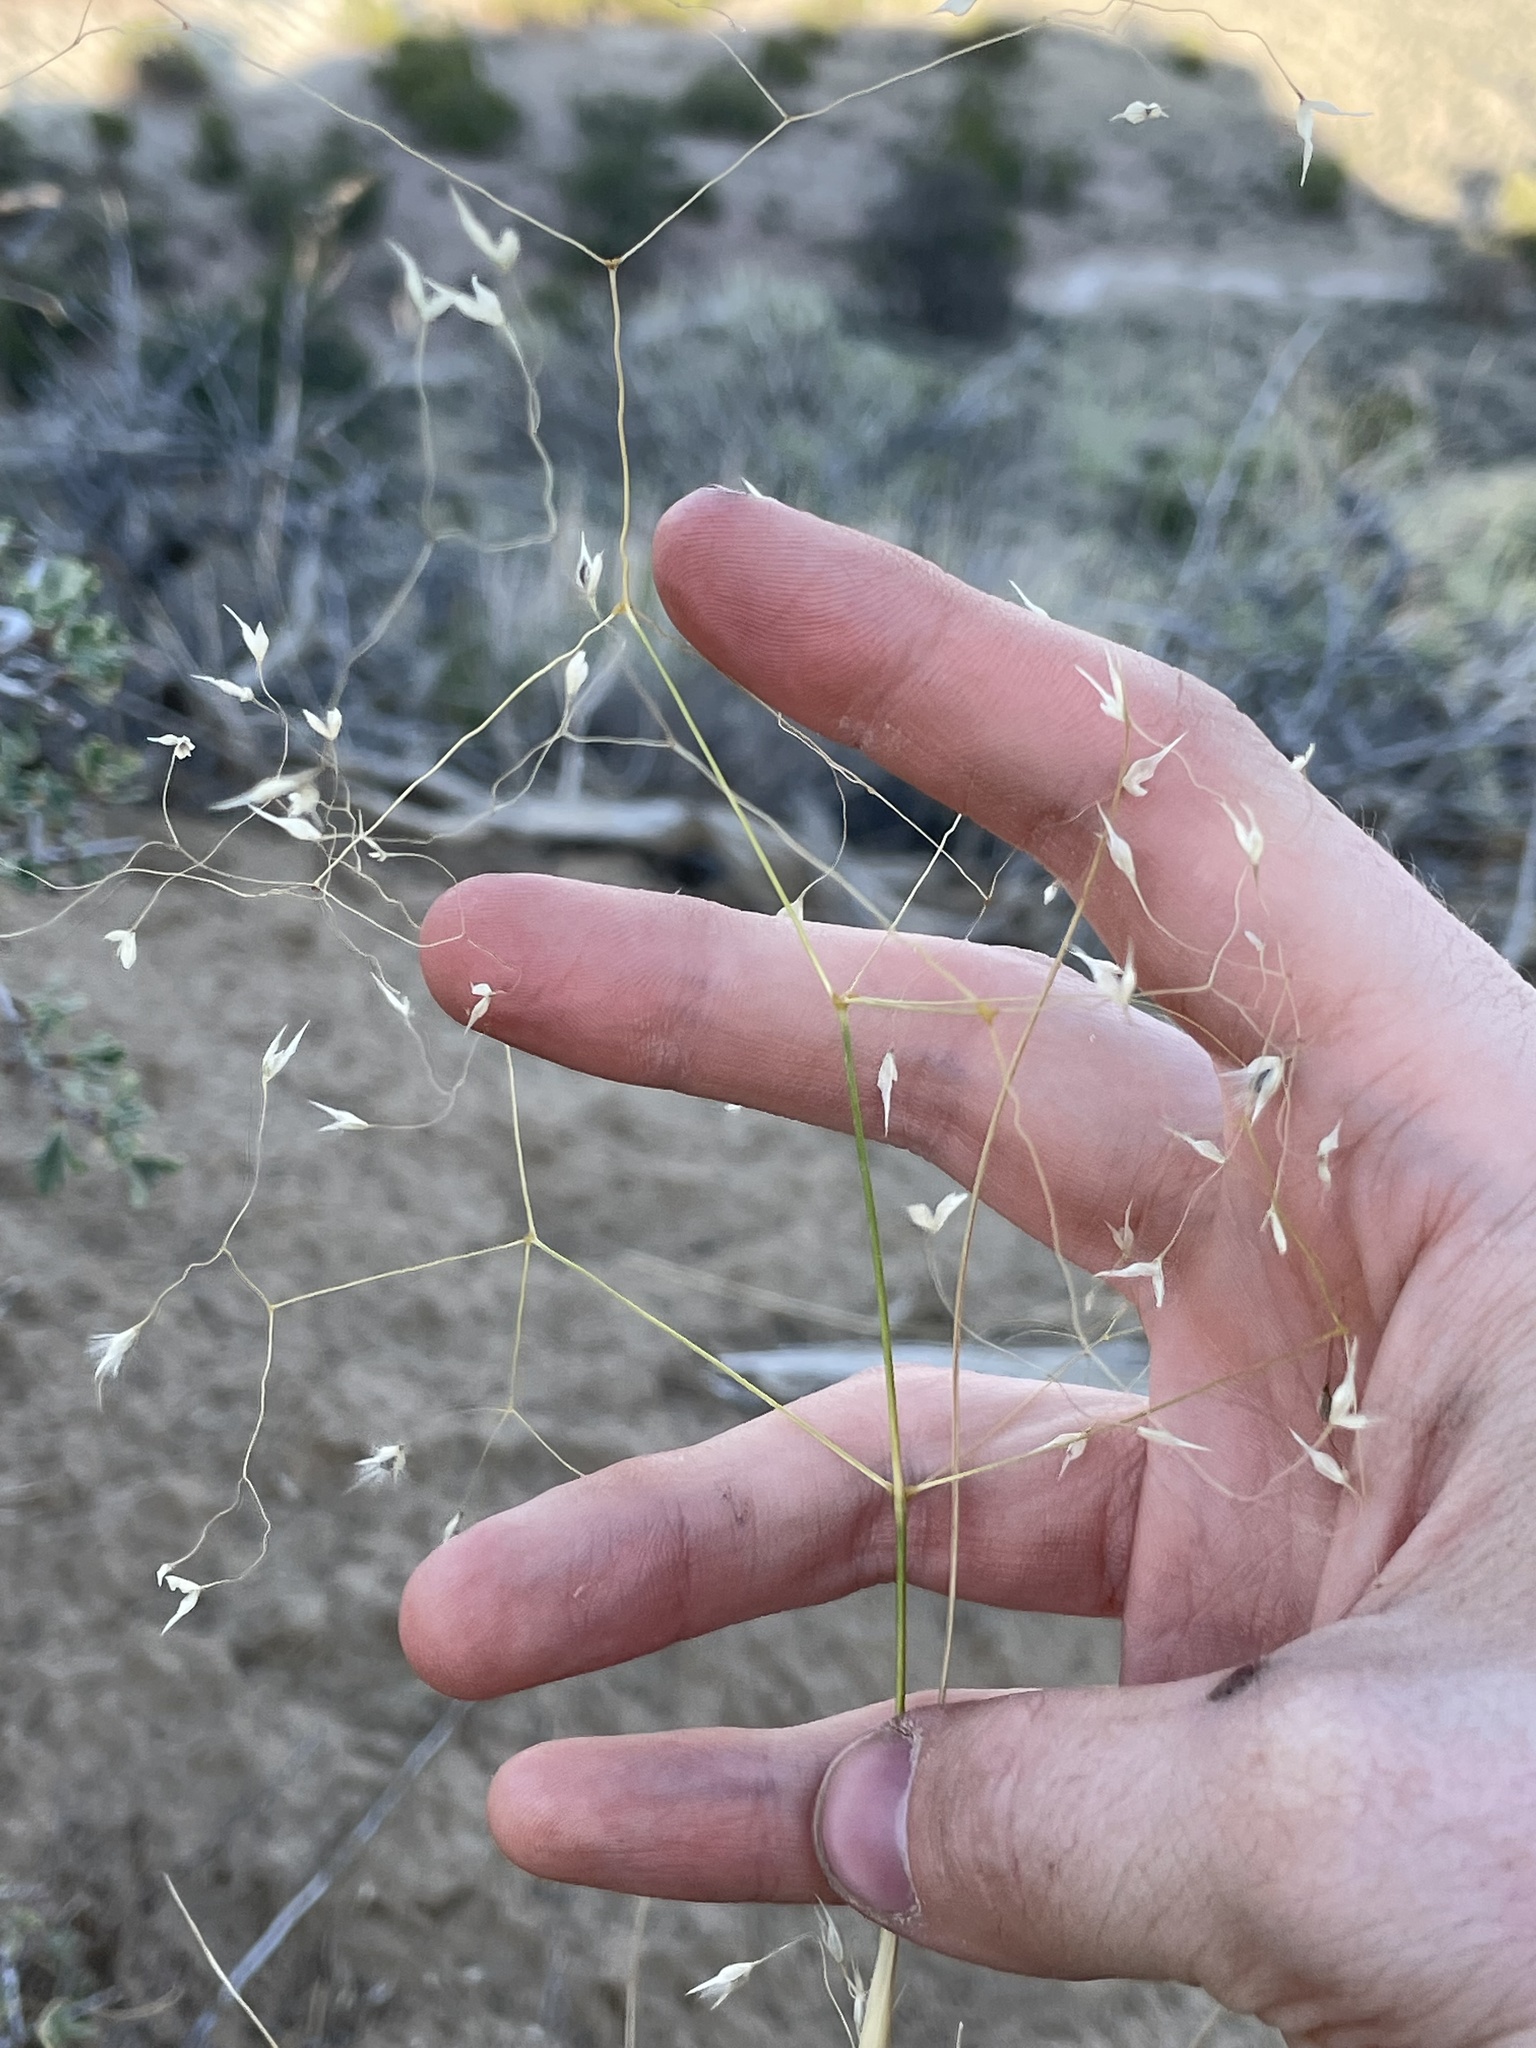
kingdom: Plantae
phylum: Tracheophyta
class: Liliopsida
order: Poales
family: Poaceae
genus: Eriocoma
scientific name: Eriocoma hymenoides
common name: Indian mountain ricegrass
